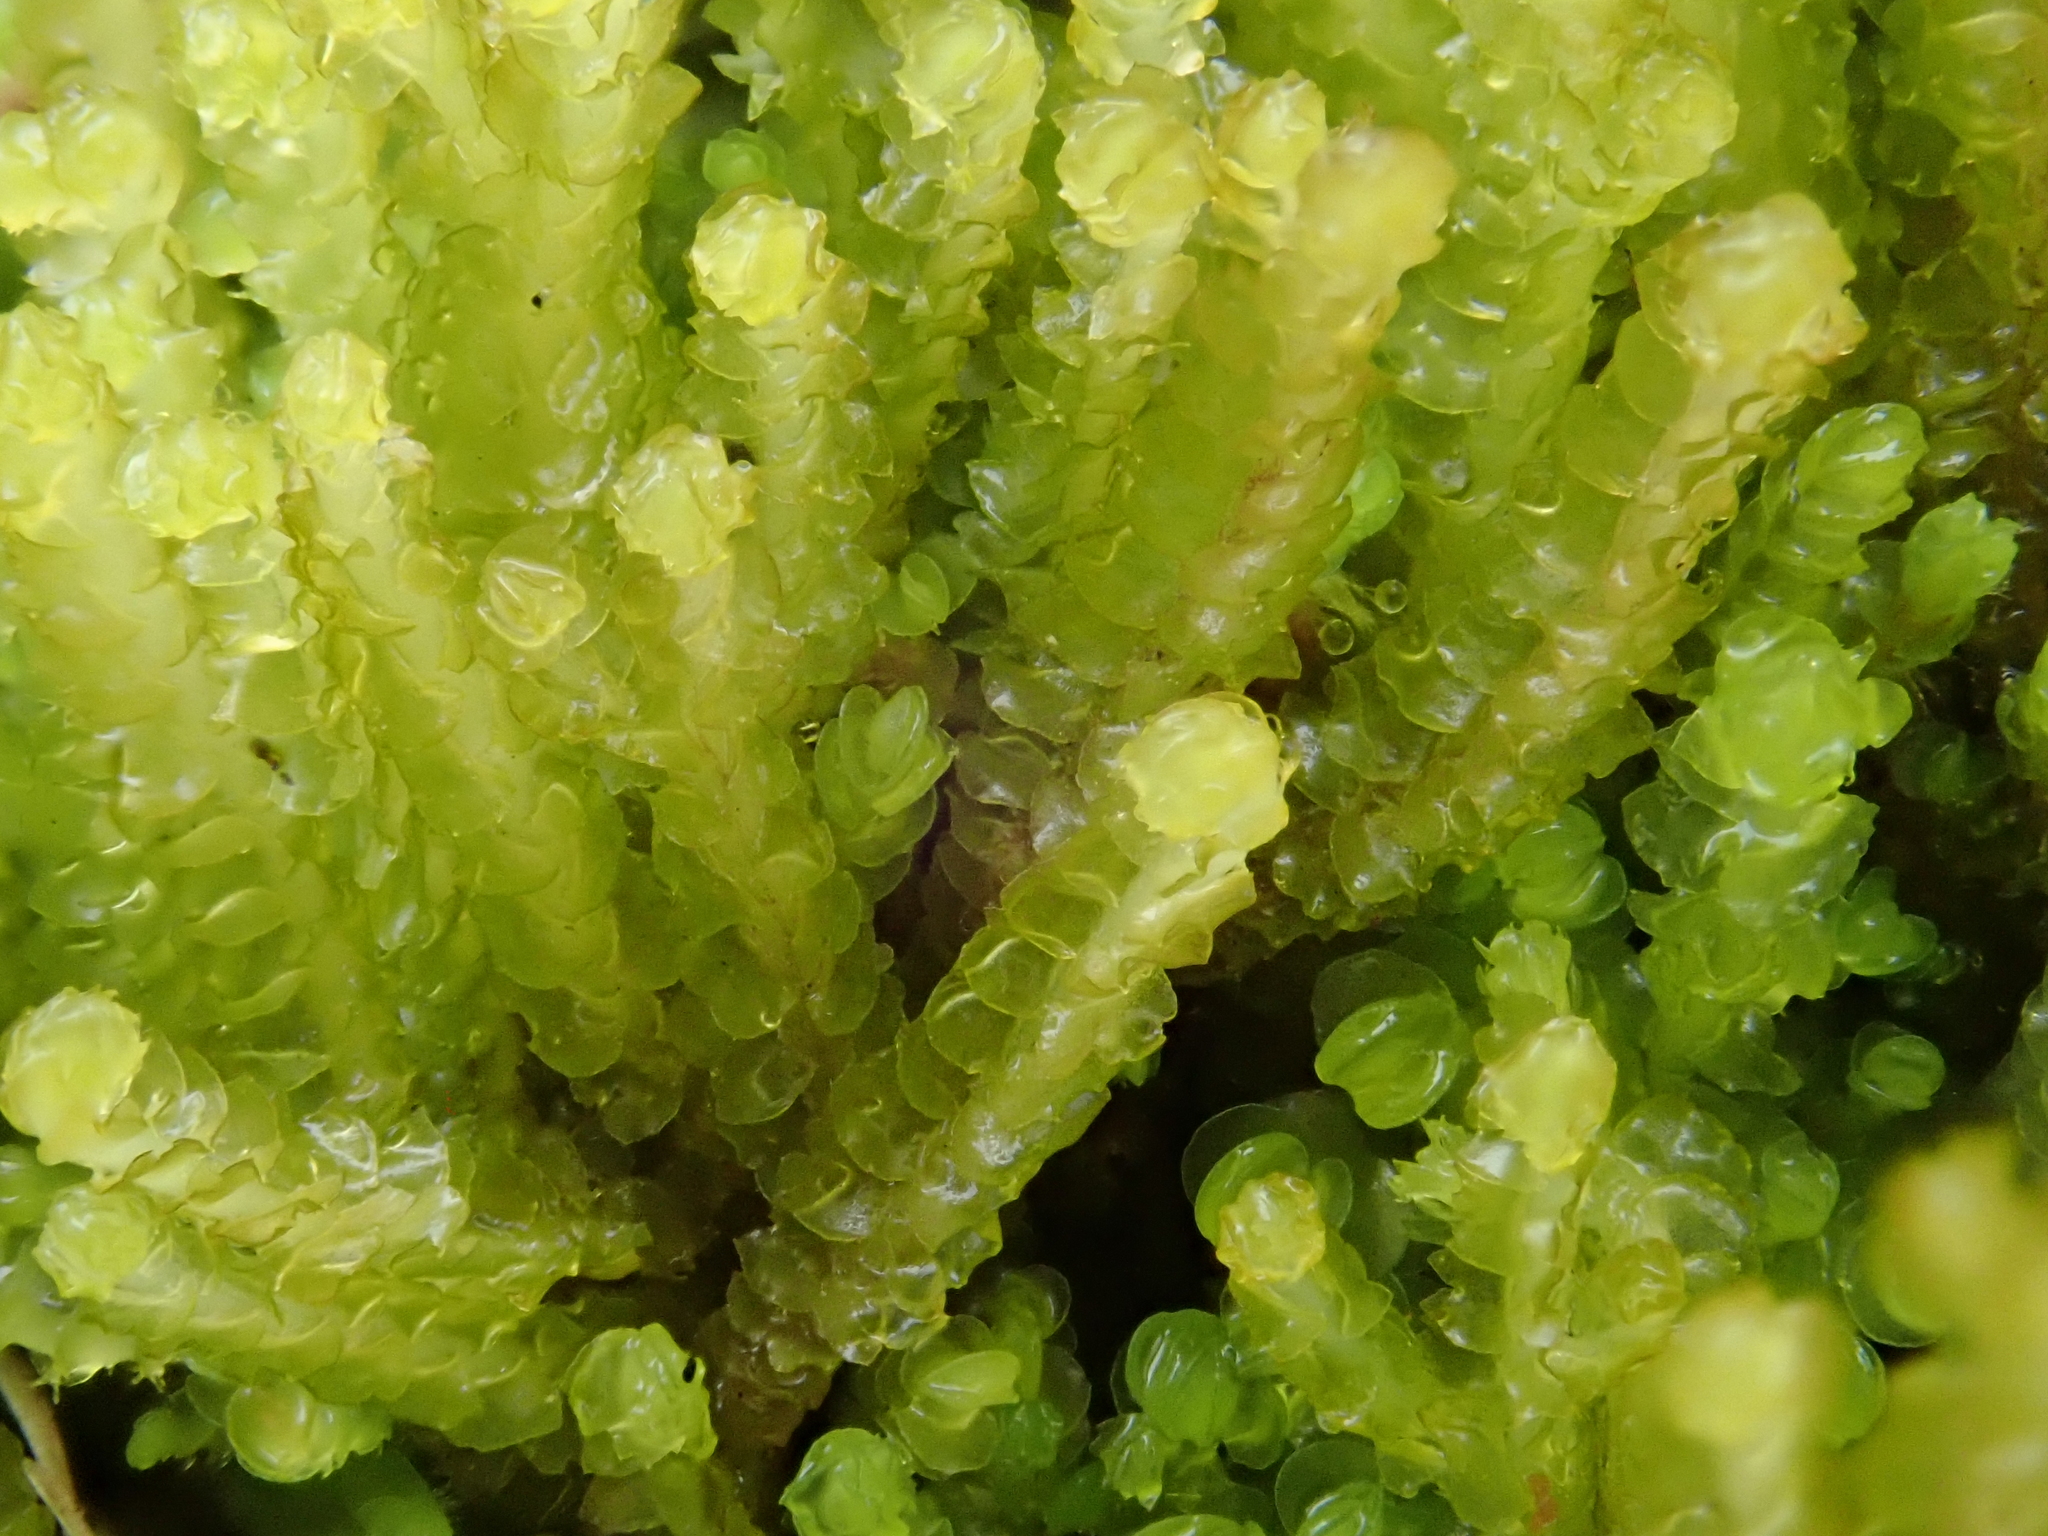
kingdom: Plantae
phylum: Marchantiophyta
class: Jungermanniopsida
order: Jungermanniales
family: Anastrophyllaceae
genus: Neoorthocaulis
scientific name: Neoorthocaulis floerkei
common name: Floerke's barbilophozia
